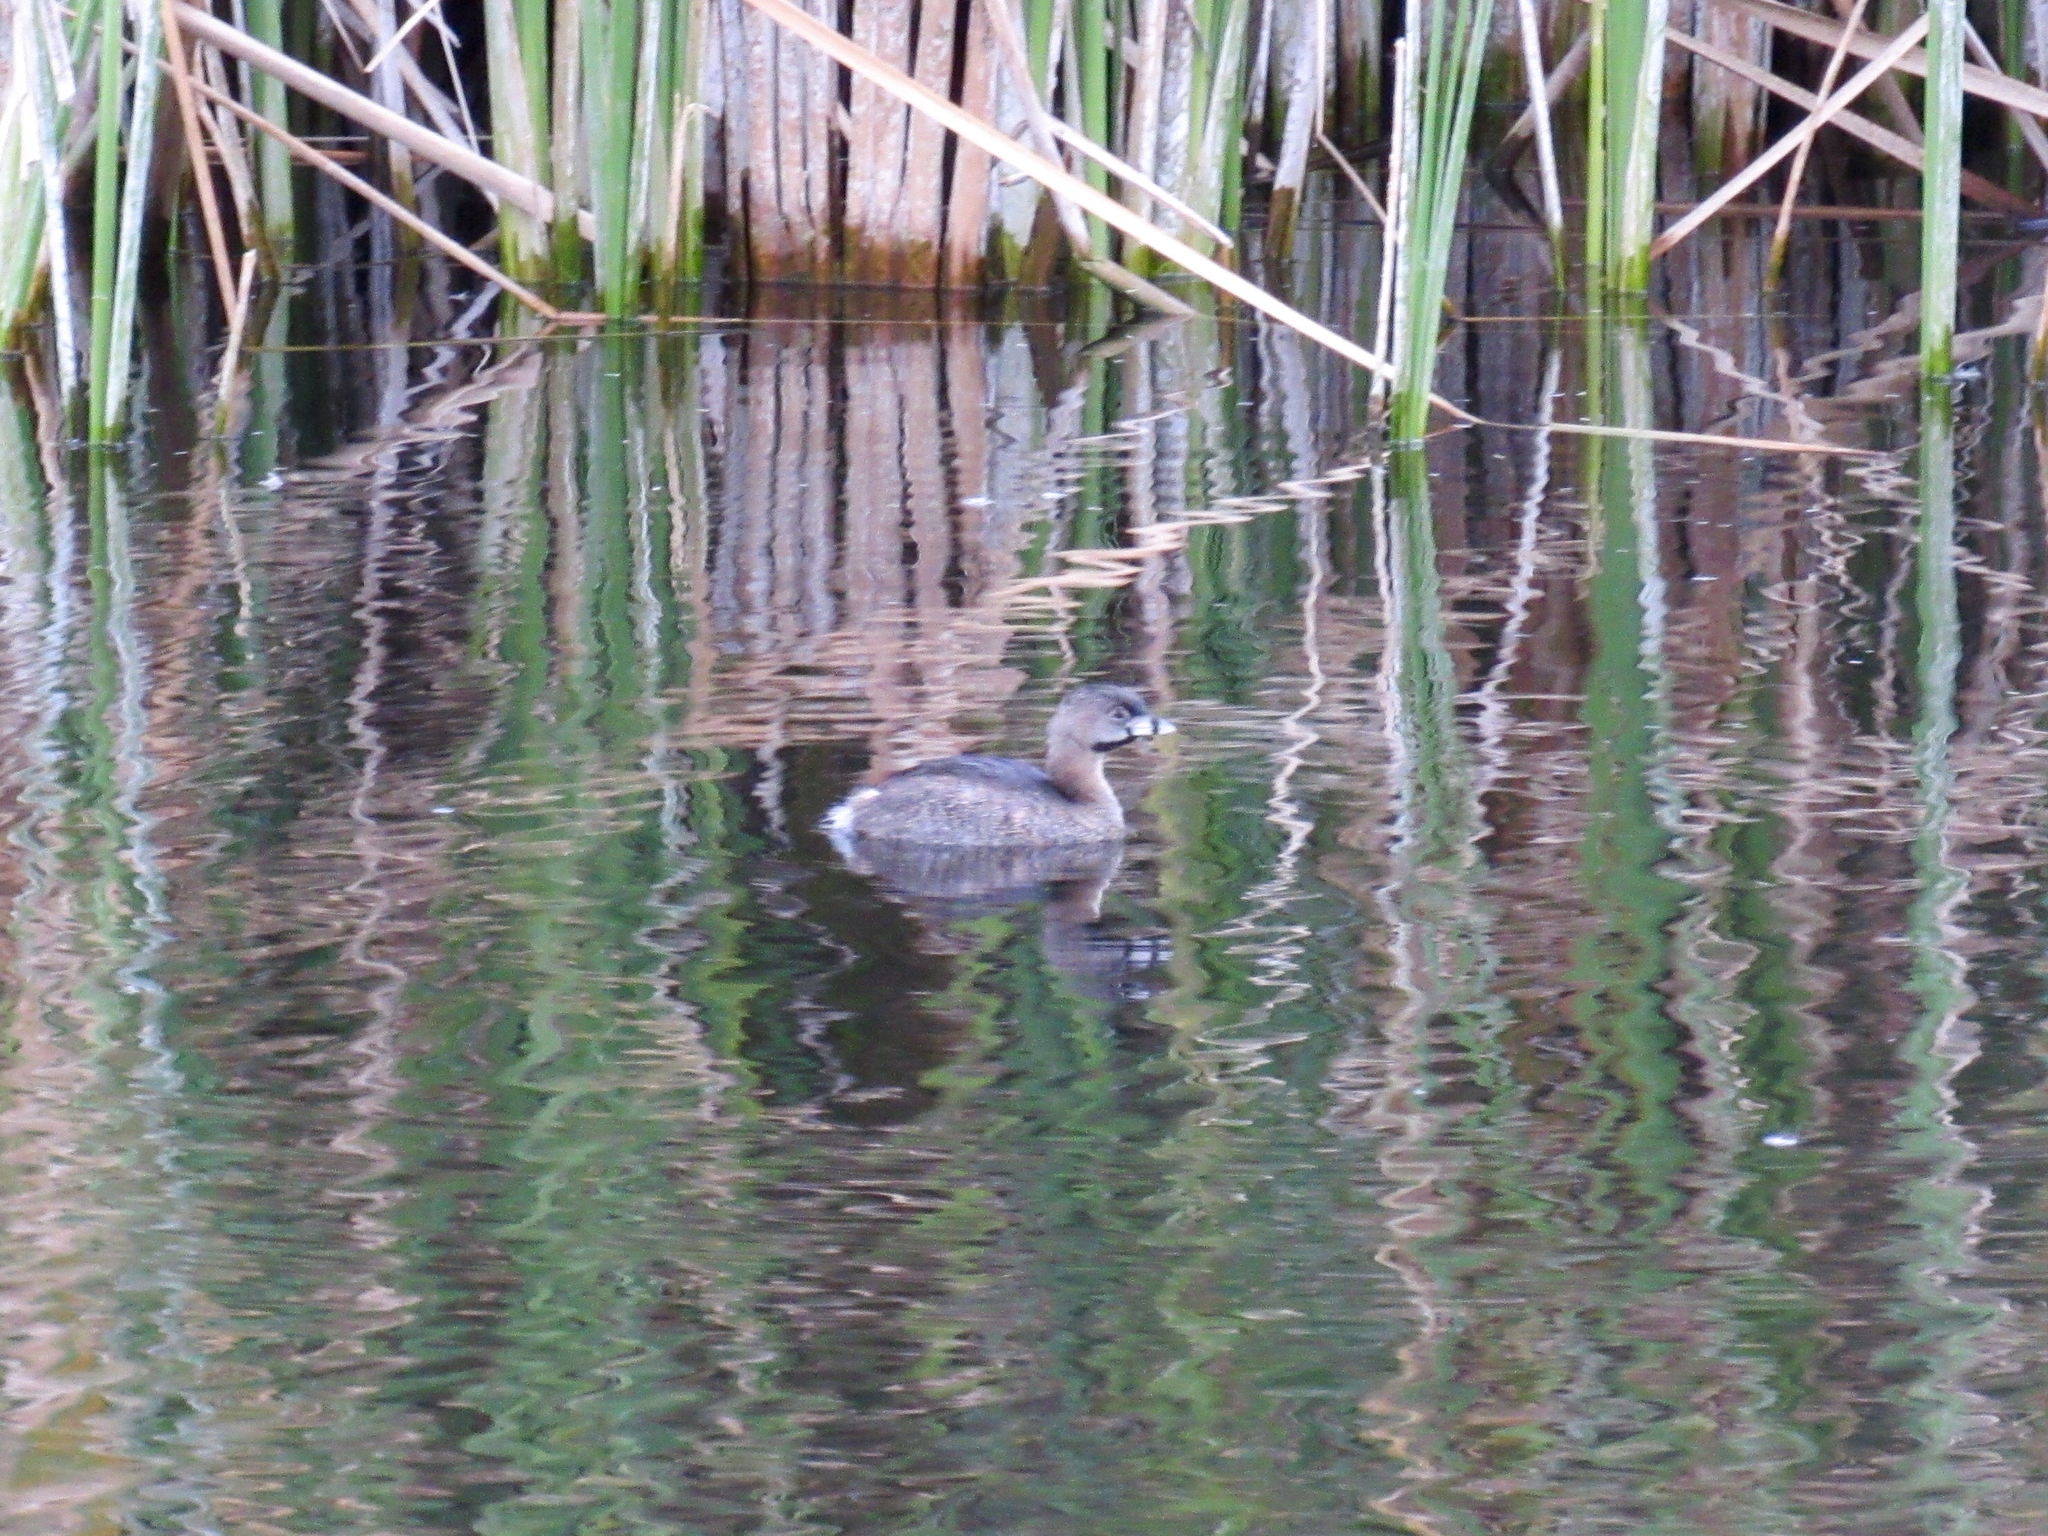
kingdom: Animalia
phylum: Chordata
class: Aves
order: Podicipediformes
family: Podicipedidae
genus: Podilymbus
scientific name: Podilymbus podiceps
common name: Pied-billed grebe
